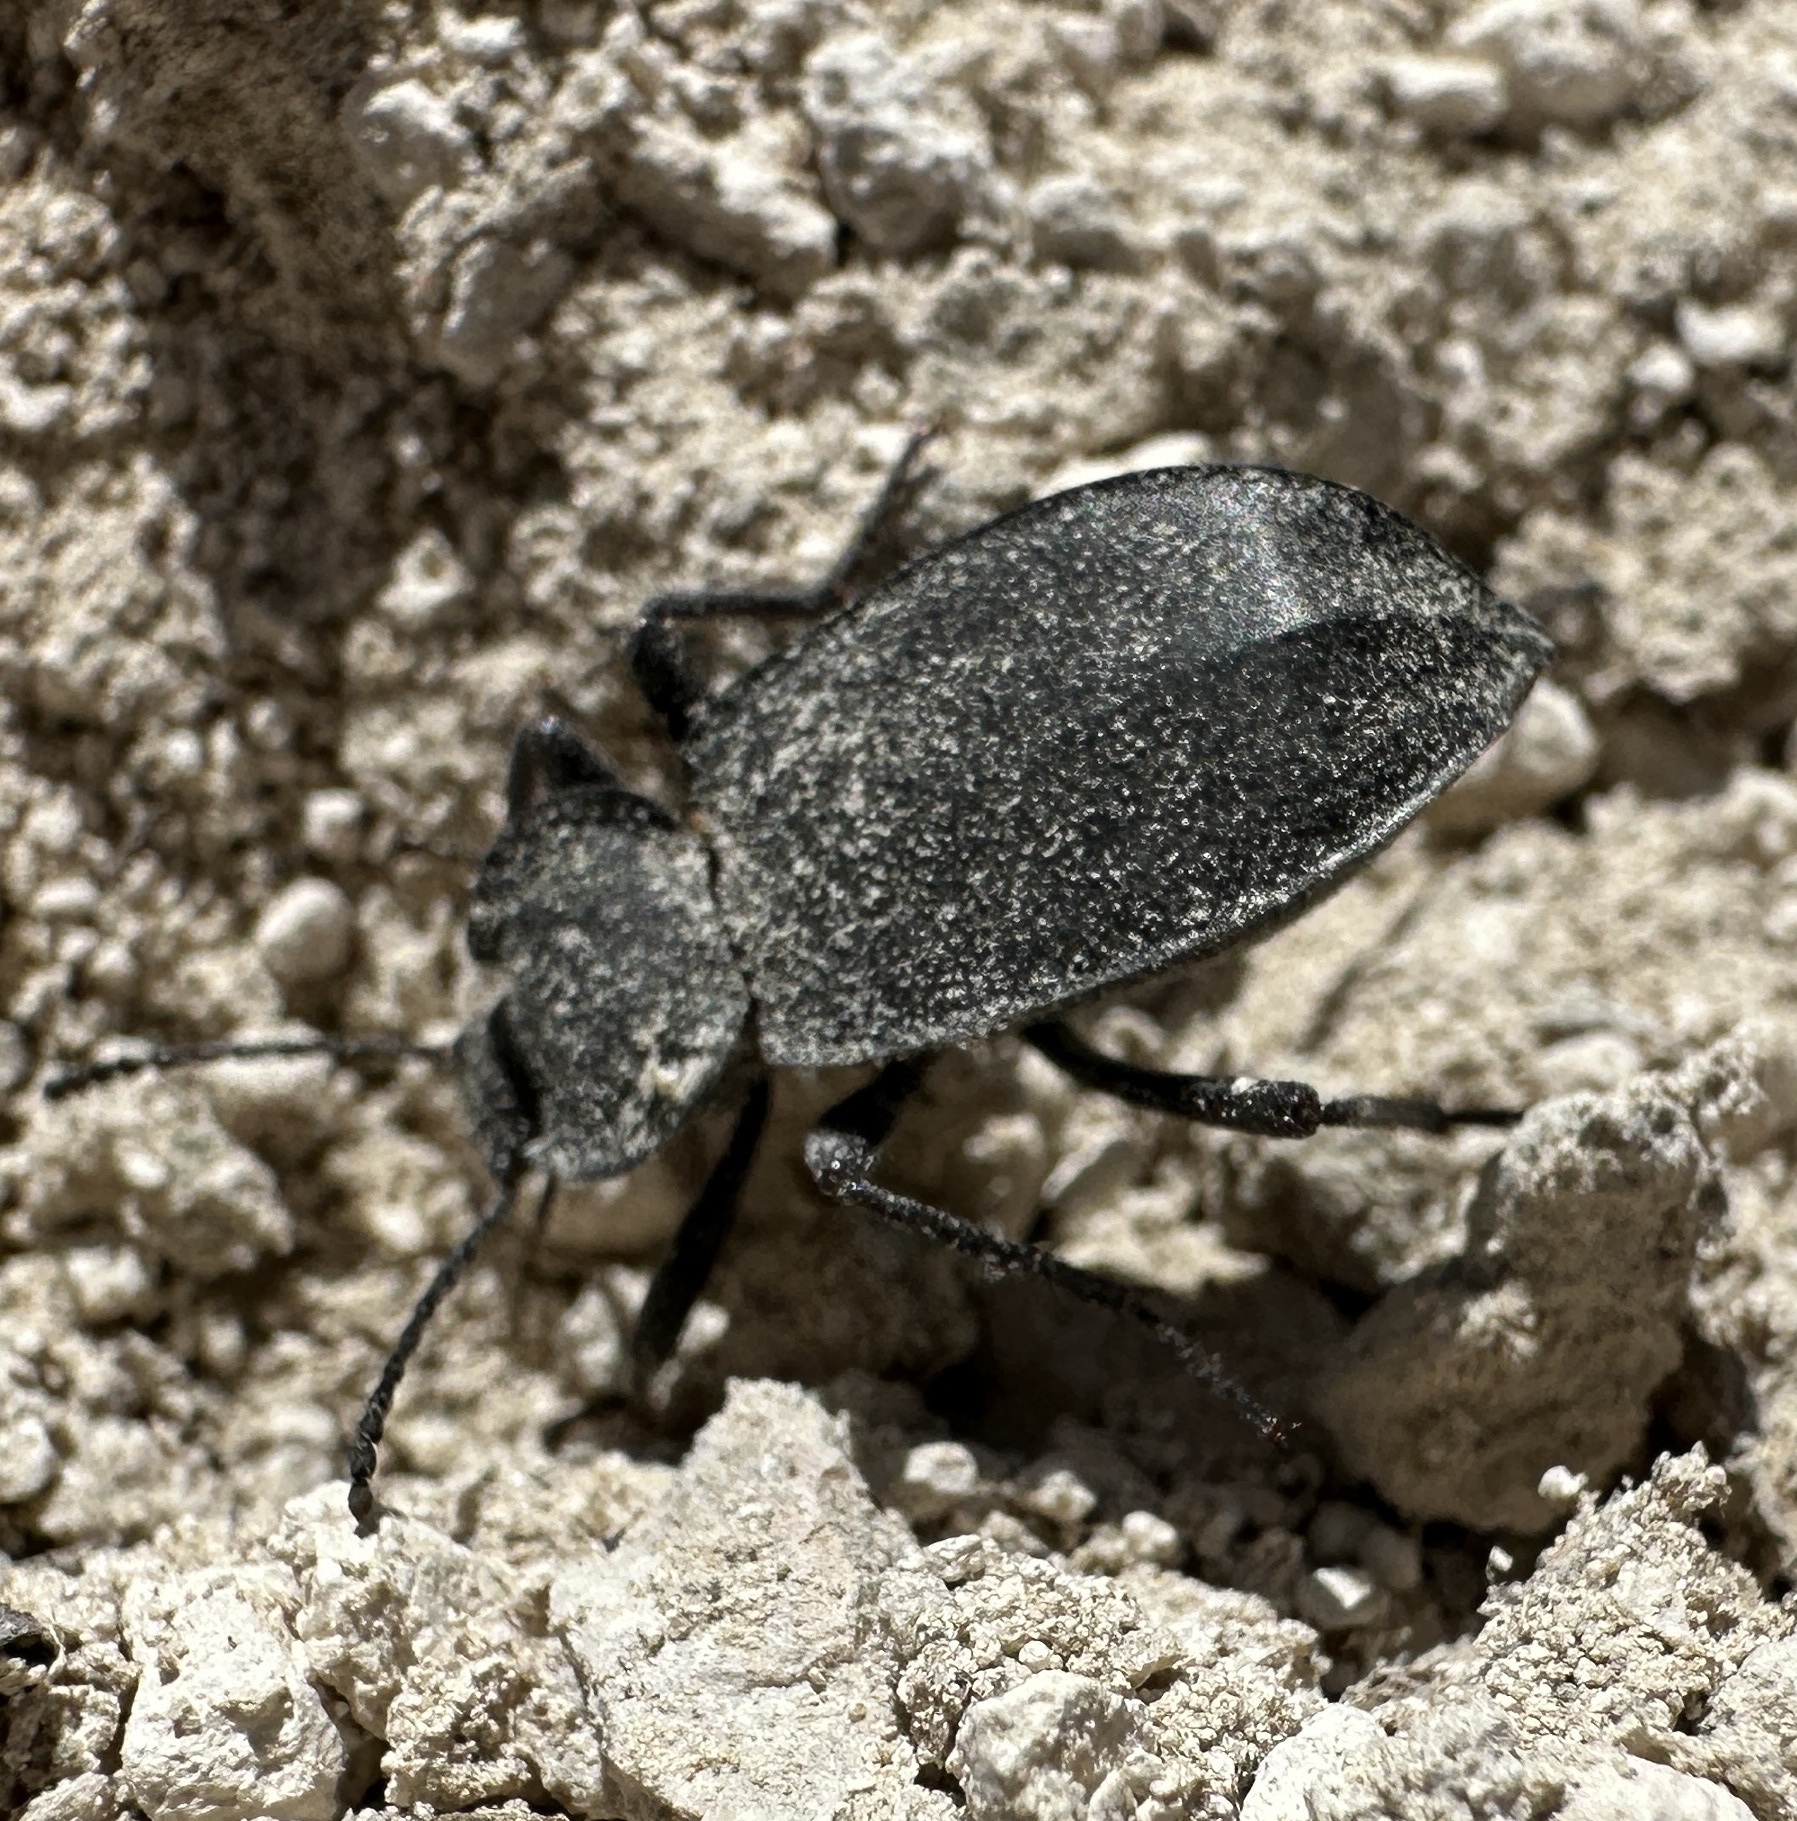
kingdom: Animalia
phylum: Arthropoda
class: Insecta
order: Coleoptera
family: Tenebrionidae
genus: Embaphion
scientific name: Embaphion elongatum
